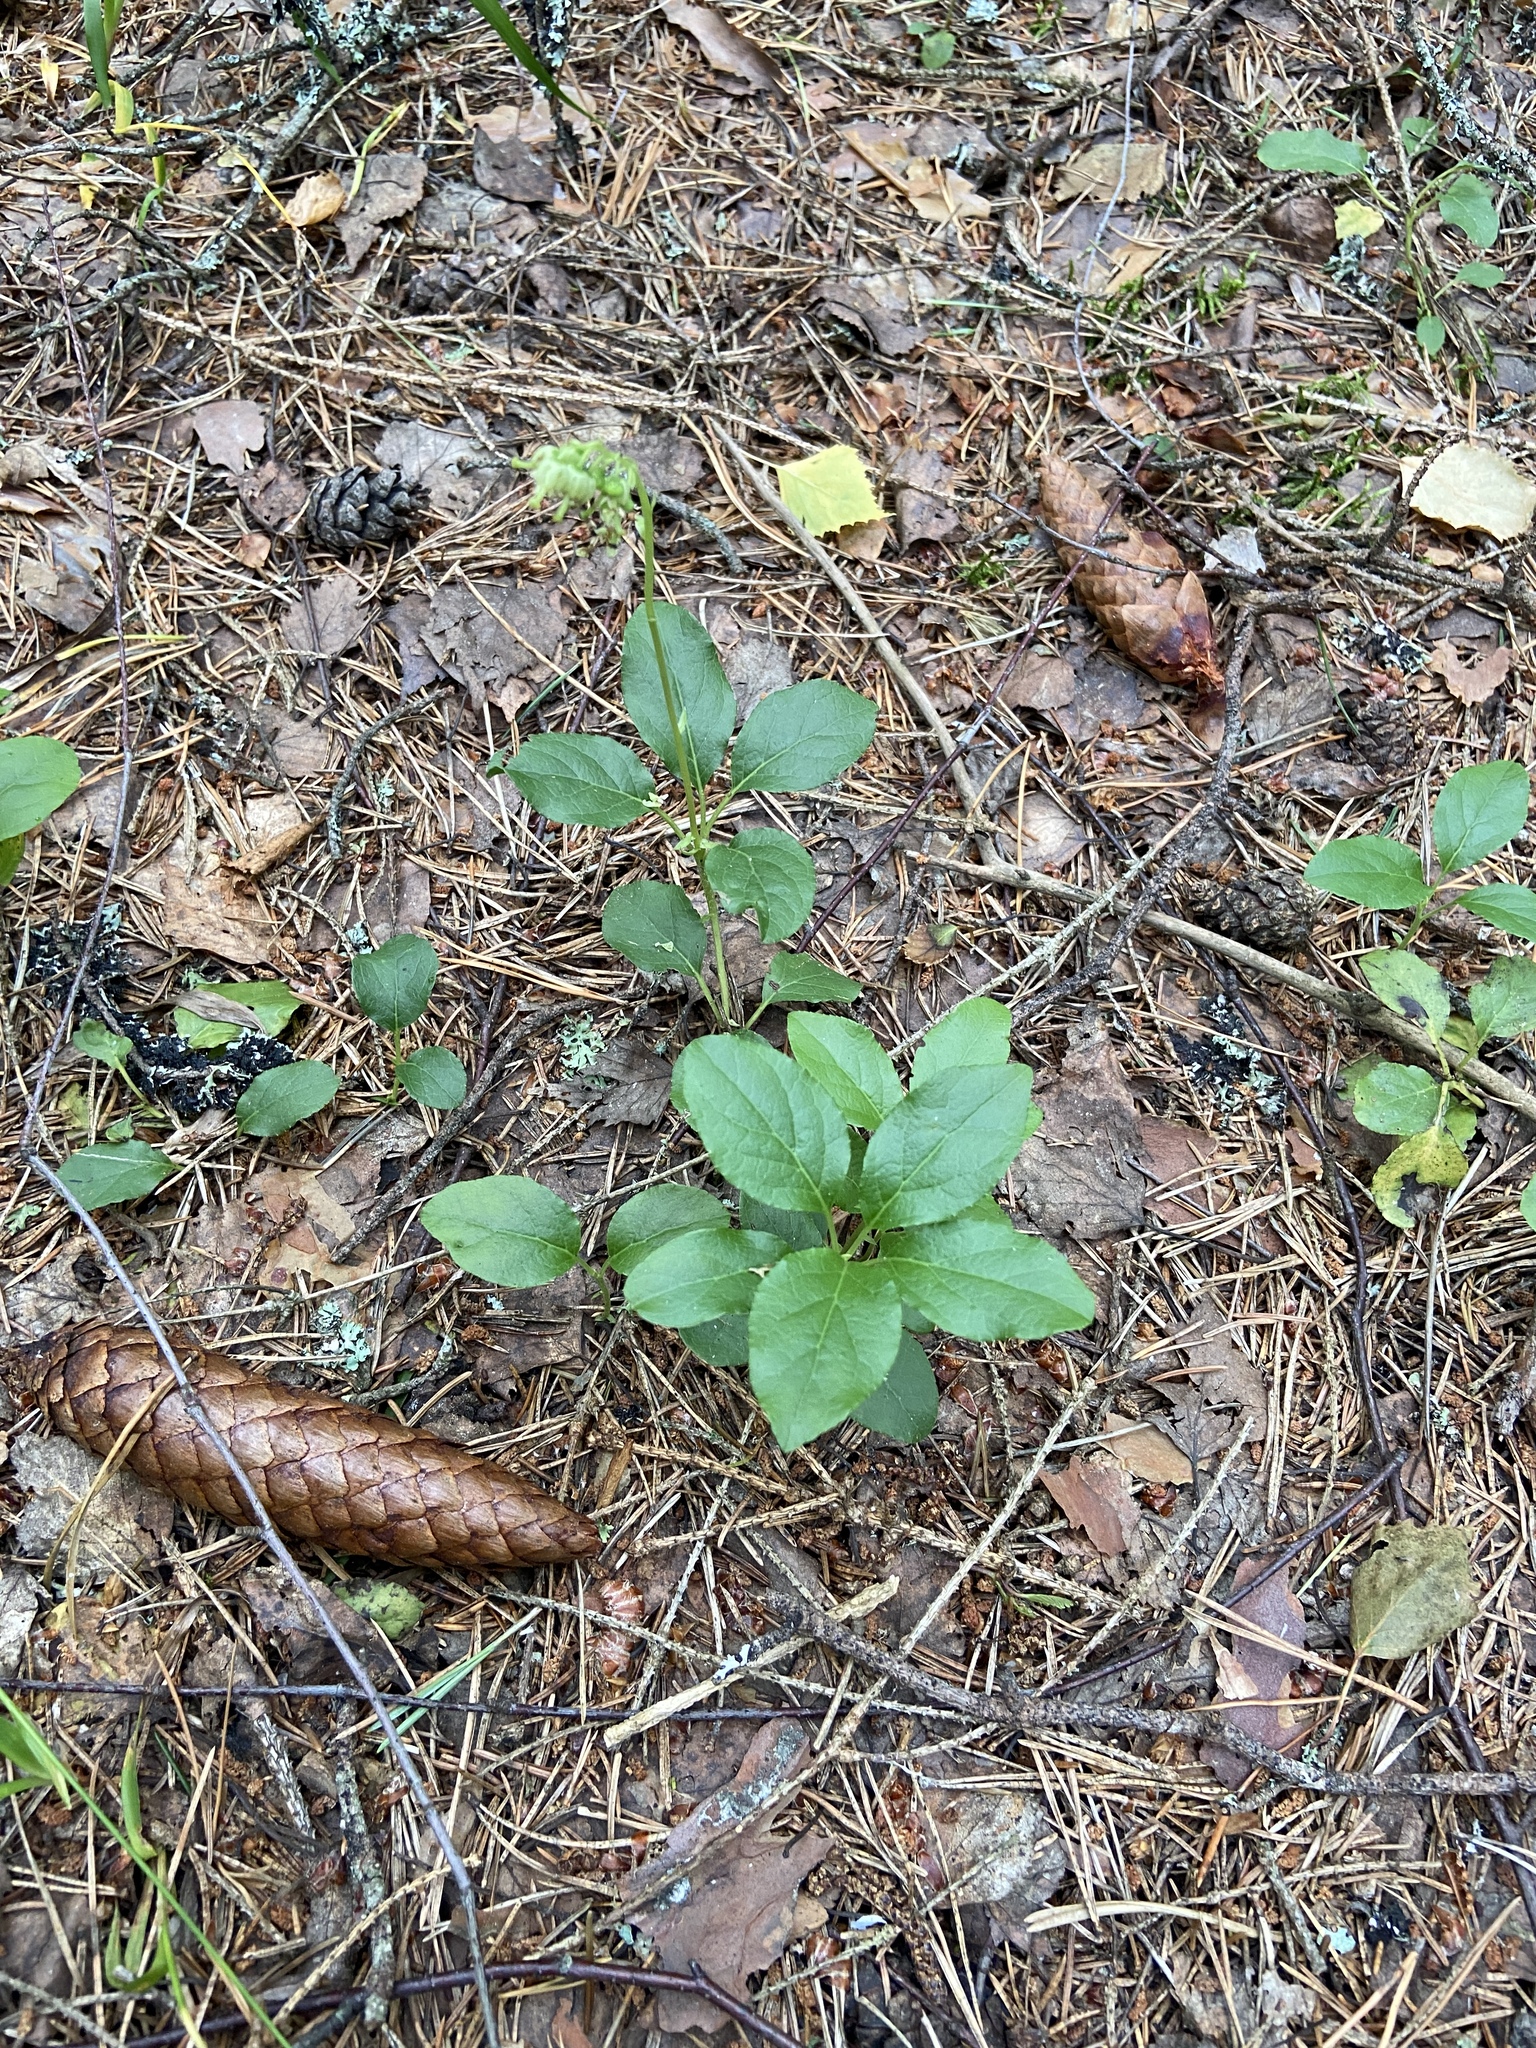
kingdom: Plantae
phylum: Tracheophyta
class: Magnoliopsida
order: Ericales
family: Ericaceae
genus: Orthilia
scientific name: Orthilia secunda
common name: One-sided orthilia
